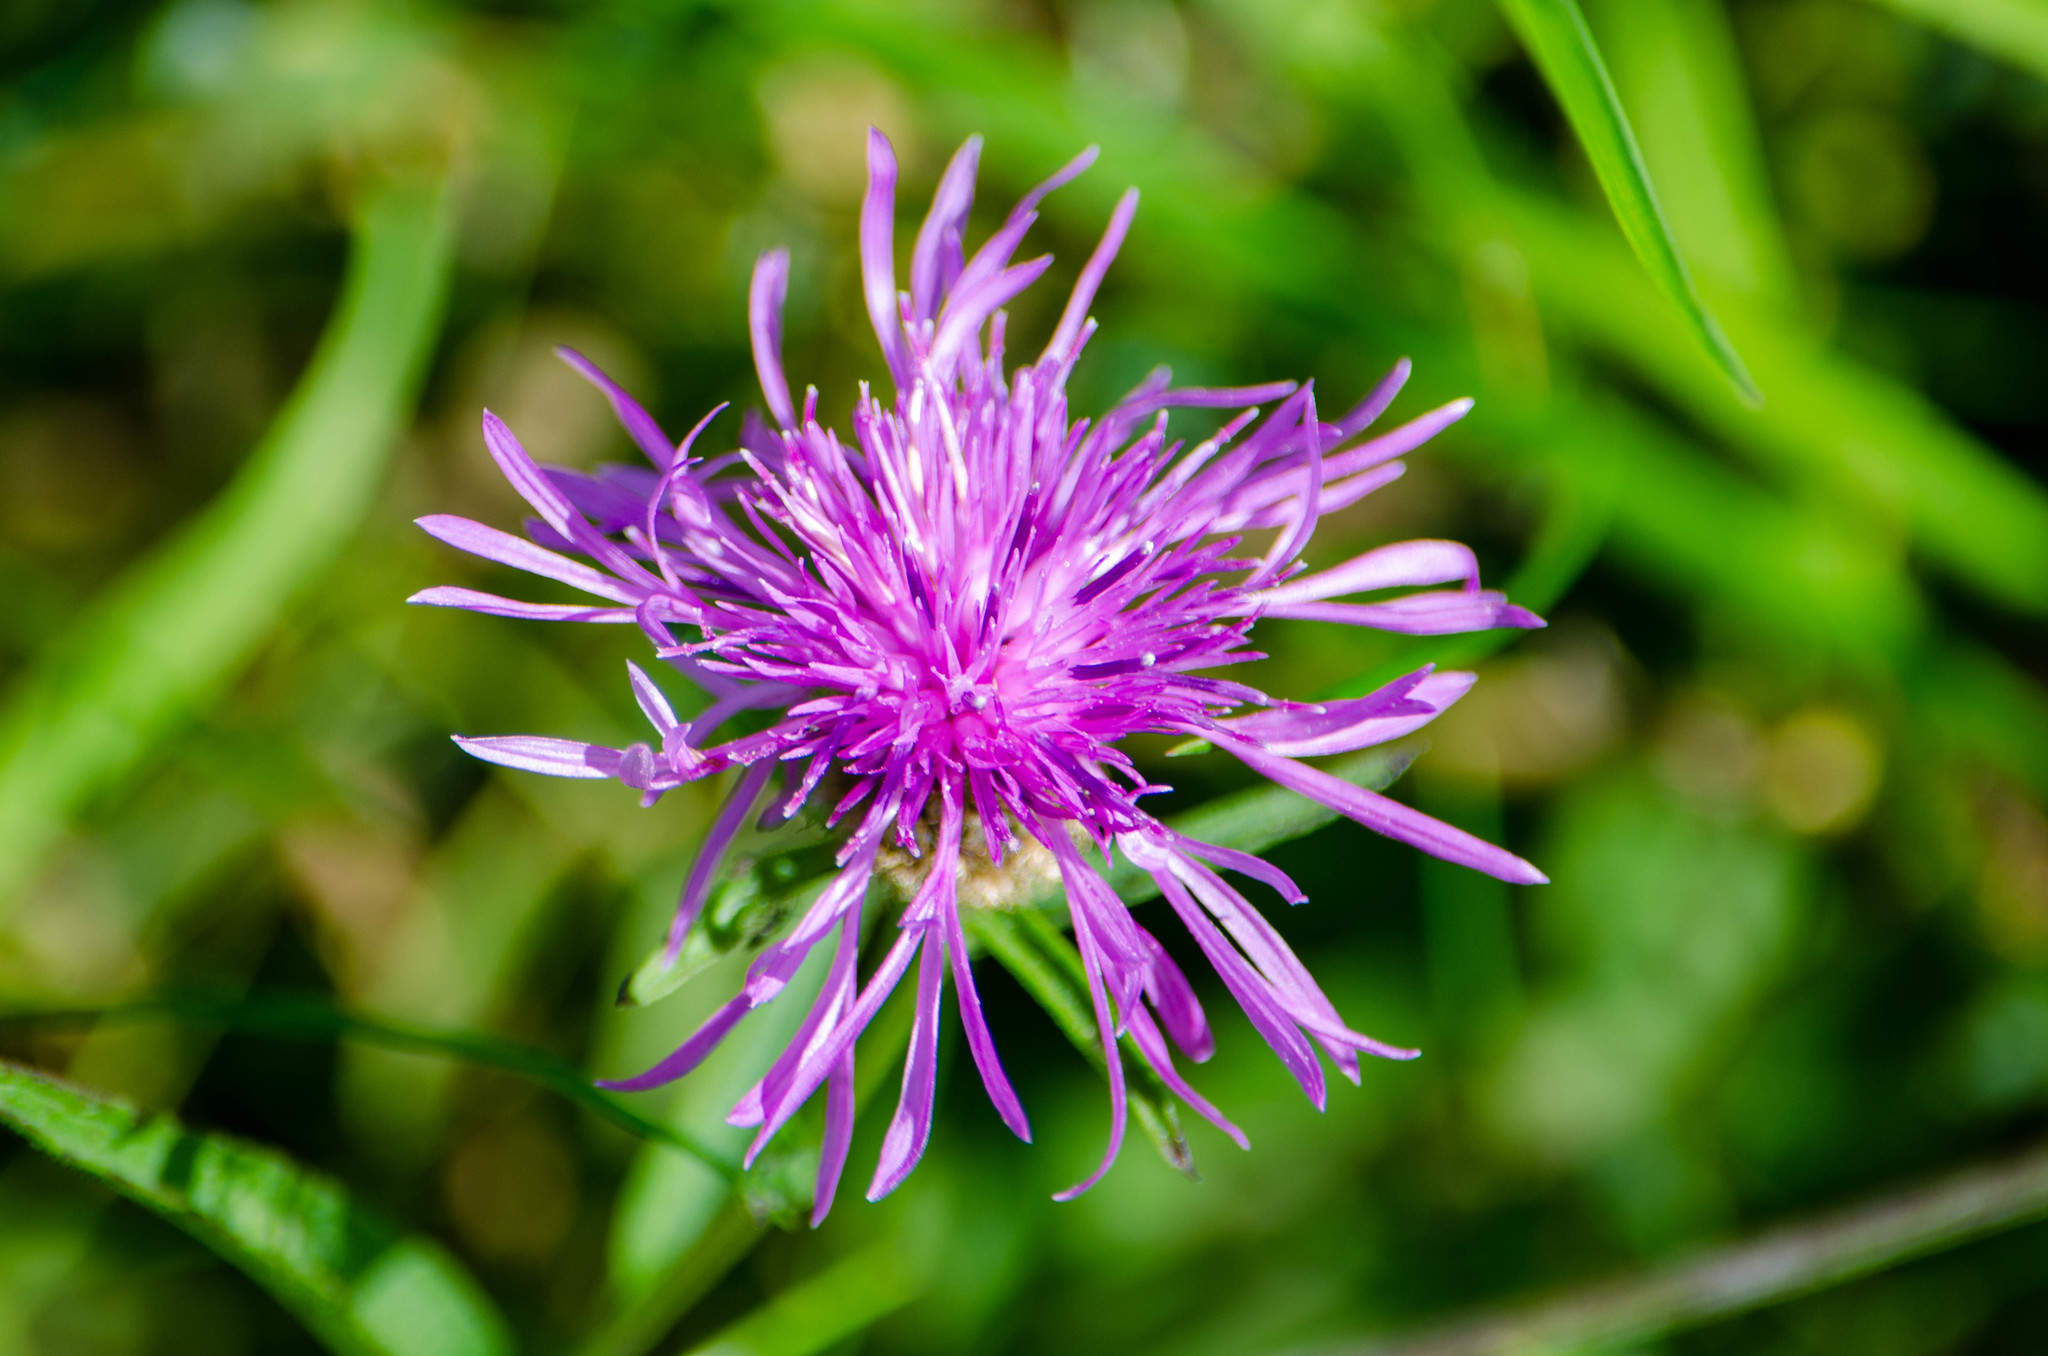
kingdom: Plantae
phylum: Tracheophyta
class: Magnoliopsida
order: Asterales
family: Asteraceae
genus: Centaurea
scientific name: Centaurea nigra
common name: Lesser knapweed
